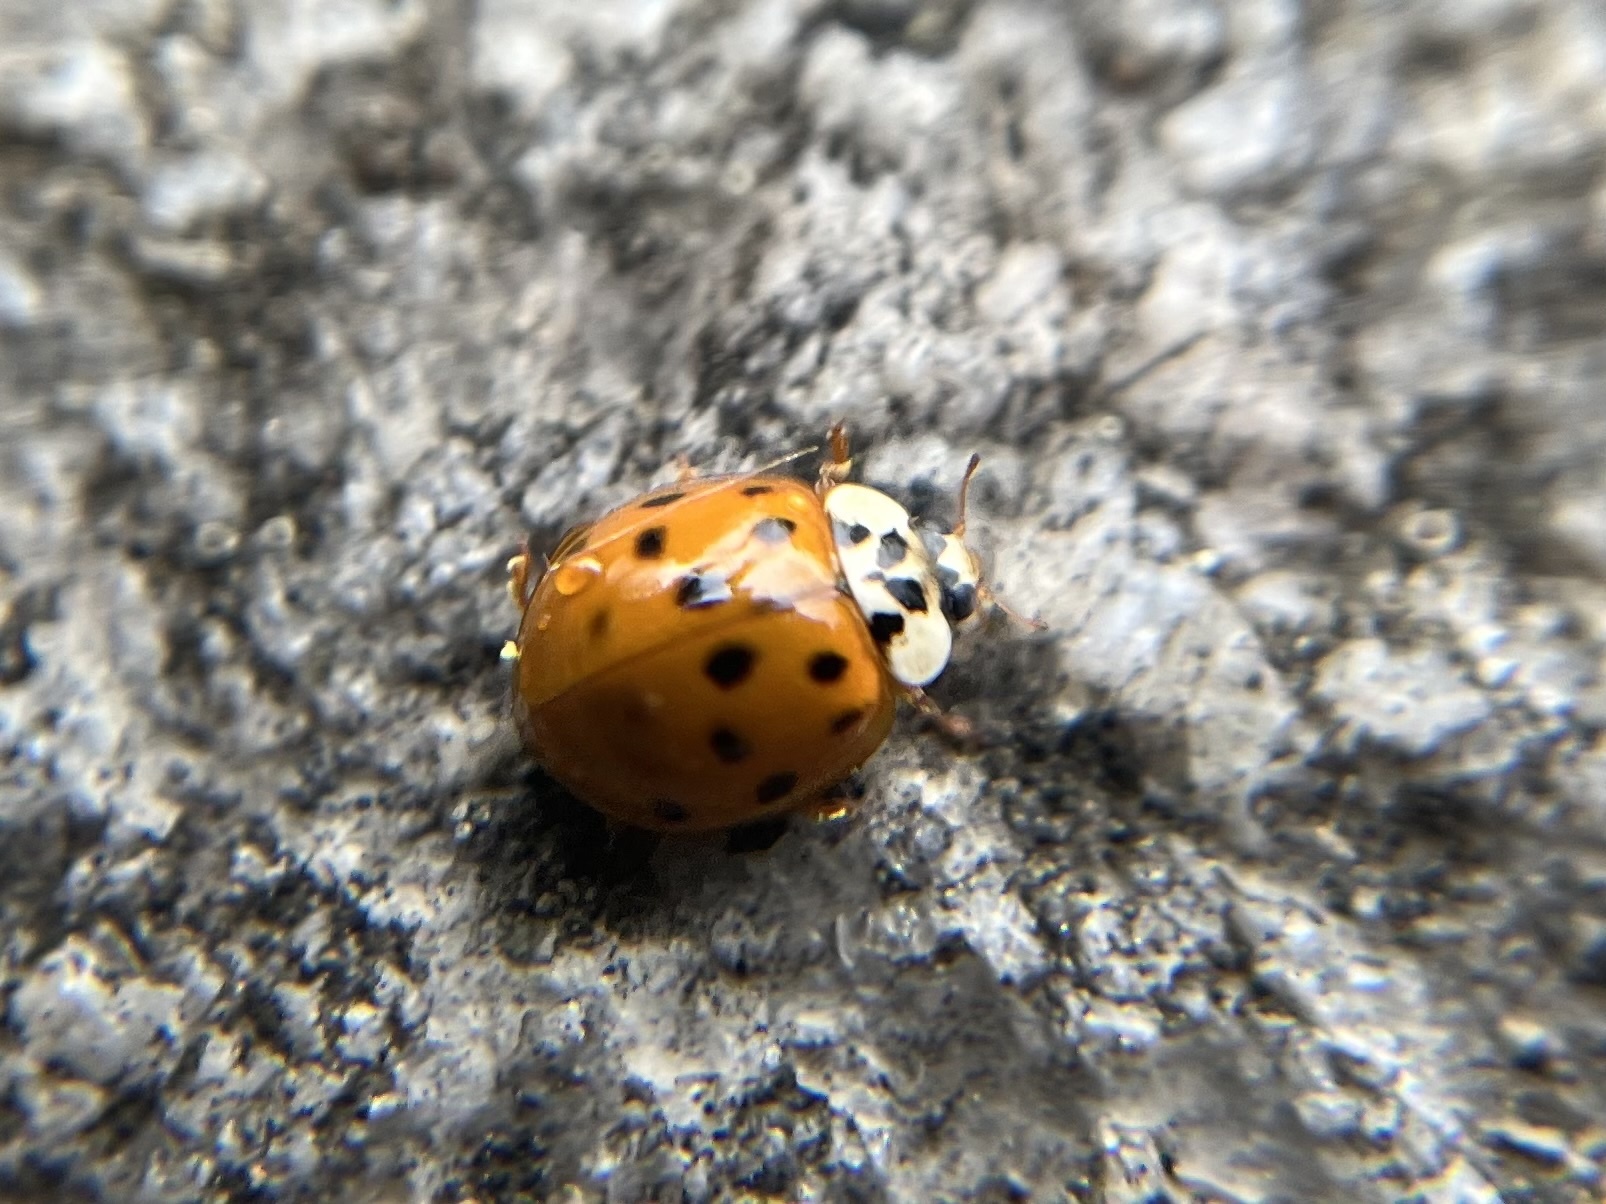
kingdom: Animalia
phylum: Arthropoda
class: Insecta
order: Coleoptera
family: Coccinellidae
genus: Harmonia
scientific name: Harmonia axyridis
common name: Harlequin ladybird
